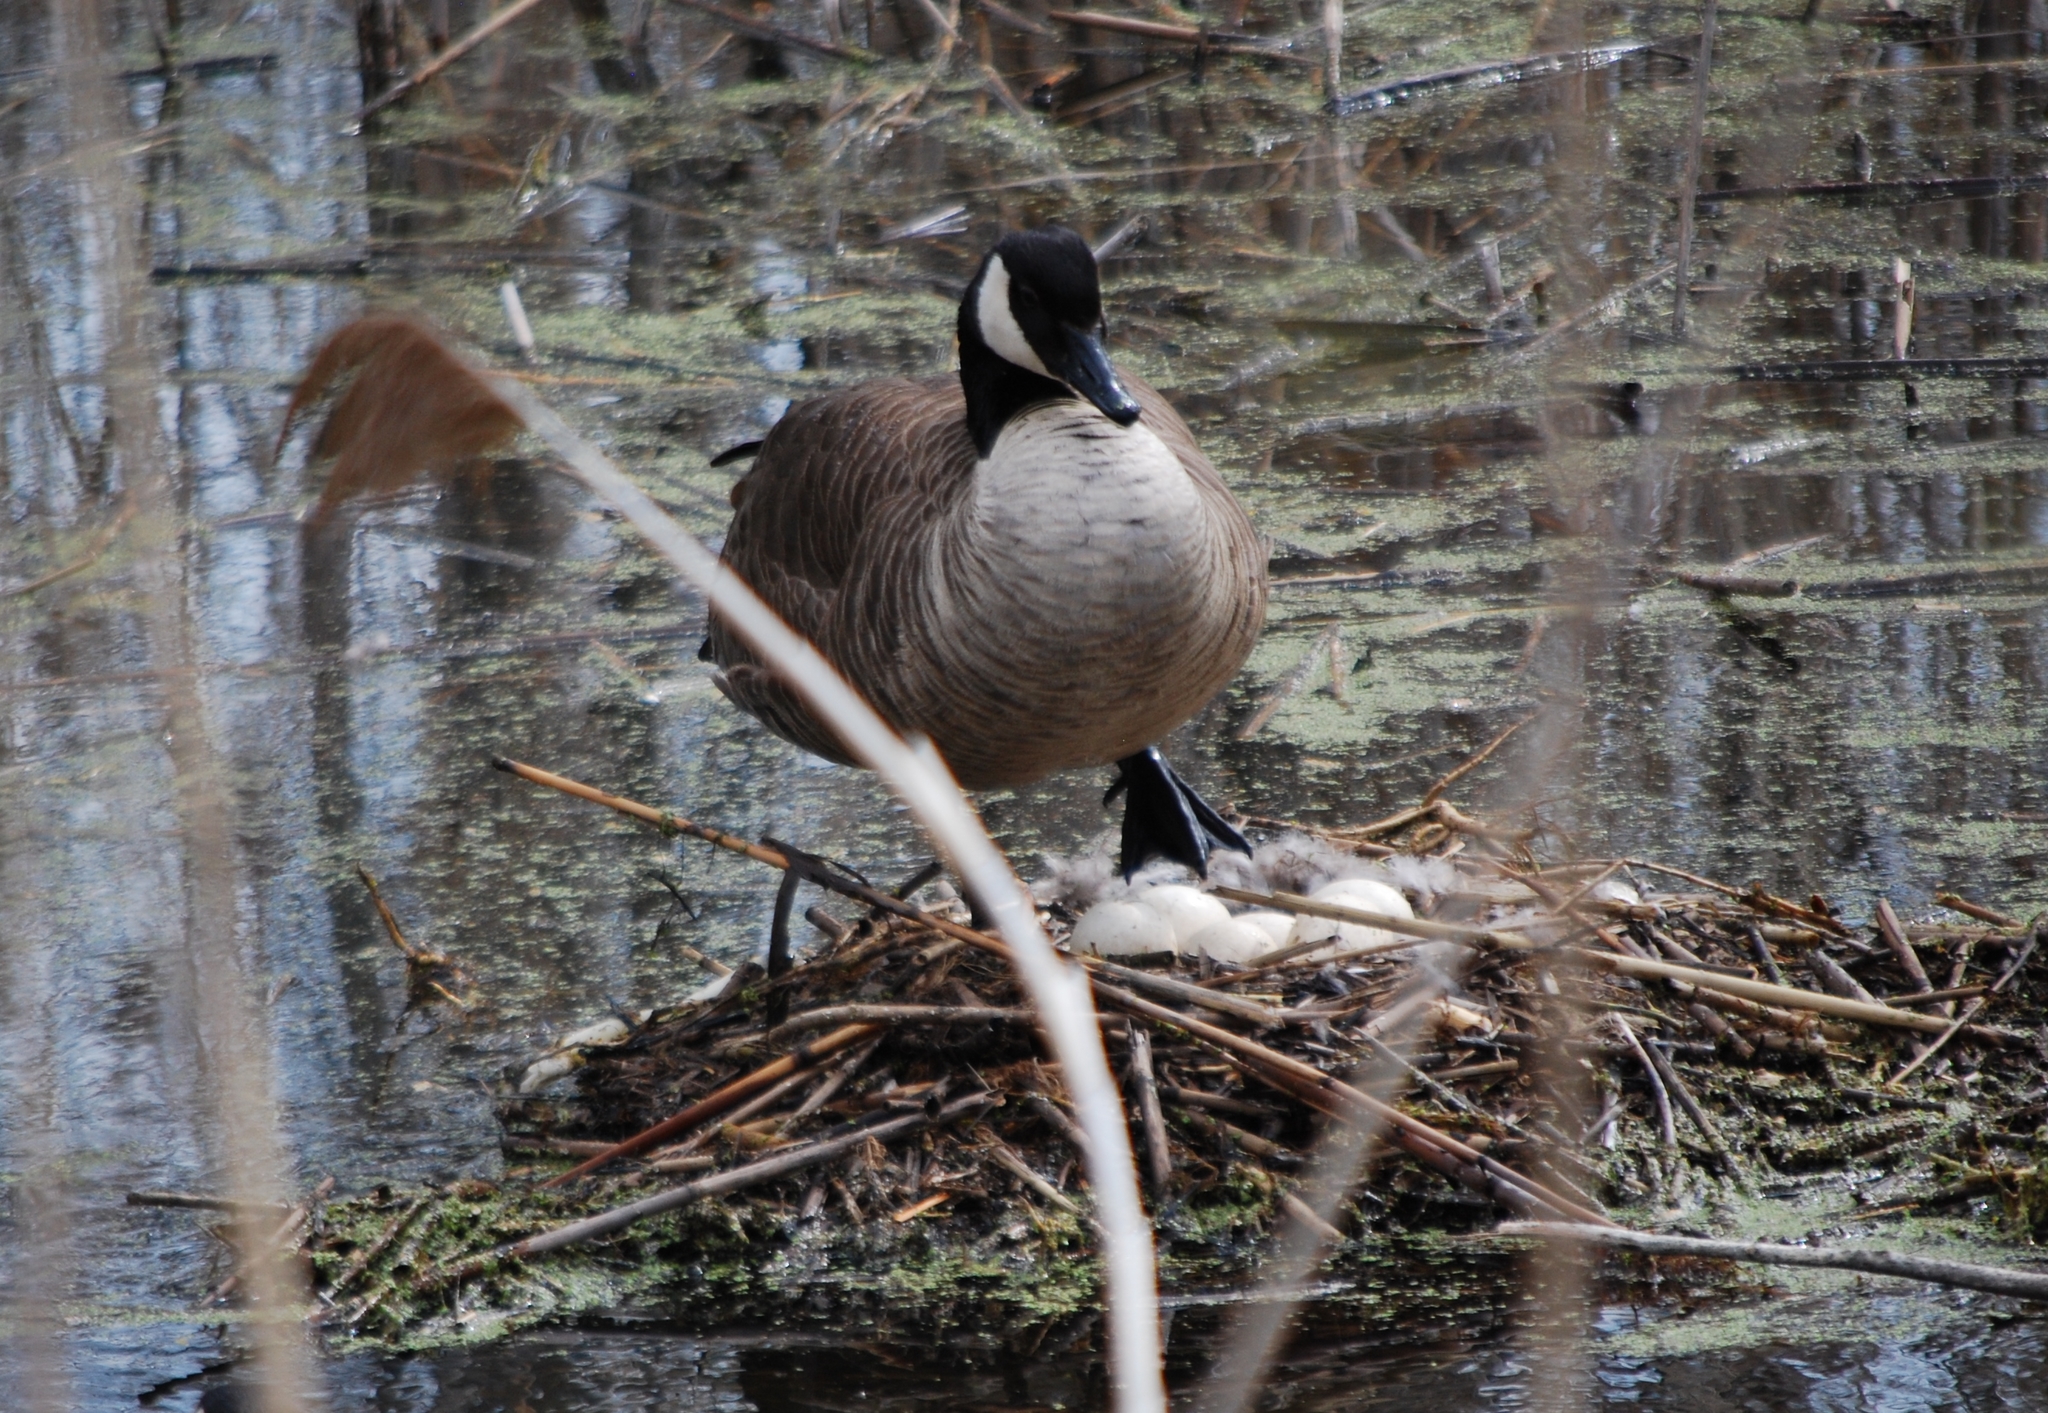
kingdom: Animalia
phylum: Chordata
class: Aves
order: Anseriformes
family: Anatidae
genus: Branta
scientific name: Branta canadensis
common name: Canada goose
